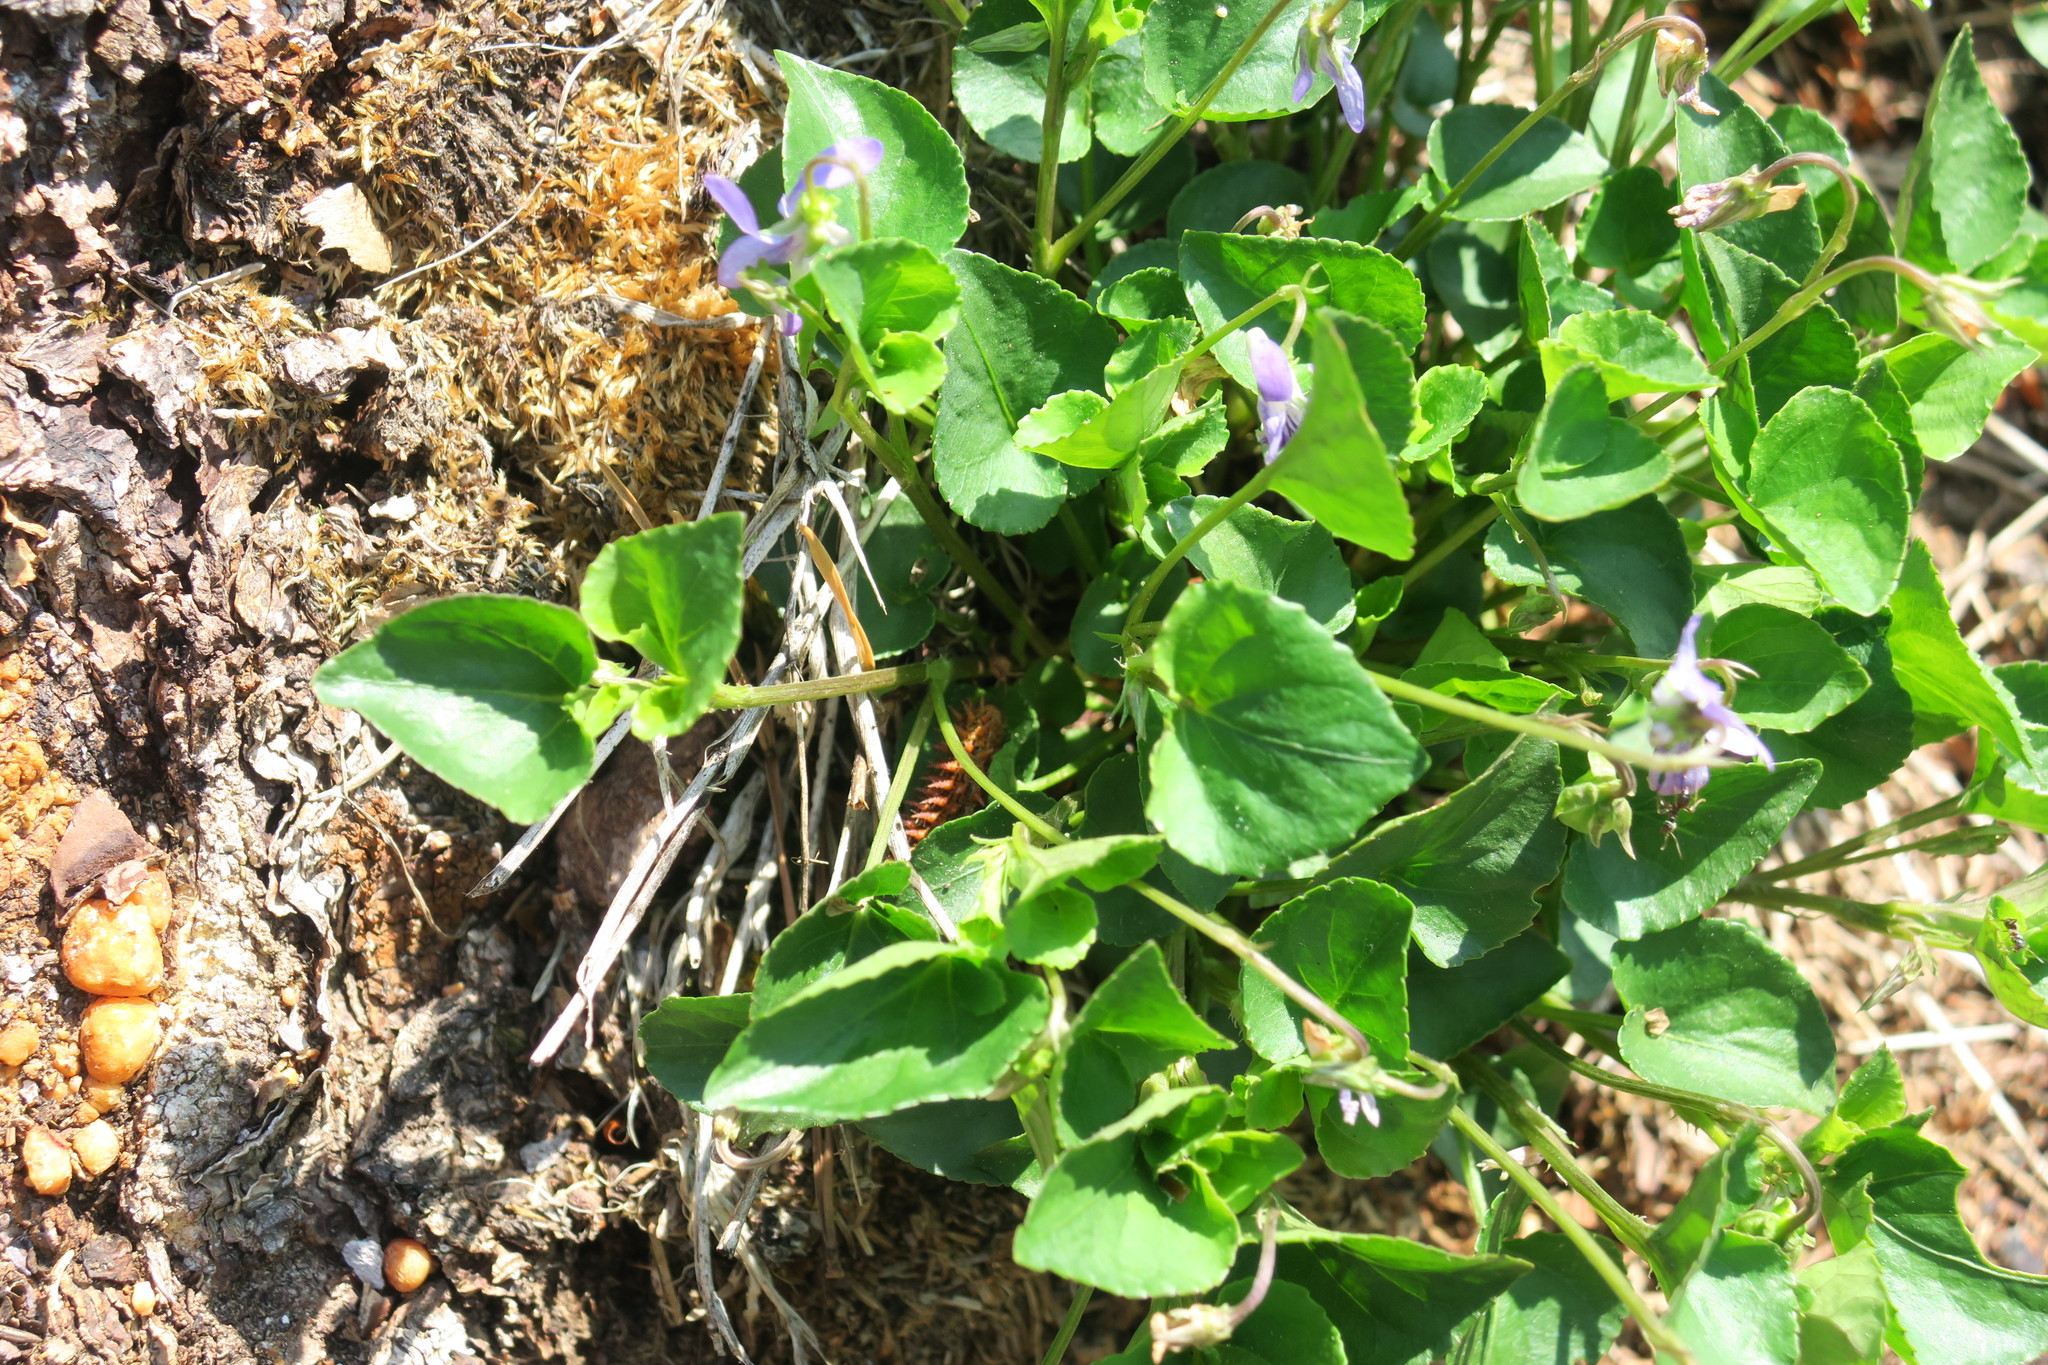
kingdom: Animalia
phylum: Arthropoda
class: Insecta
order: Lepidoptera
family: Nymphalidae
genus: Fabriciana
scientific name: Fabriciana adippe
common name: High brown fritillary
